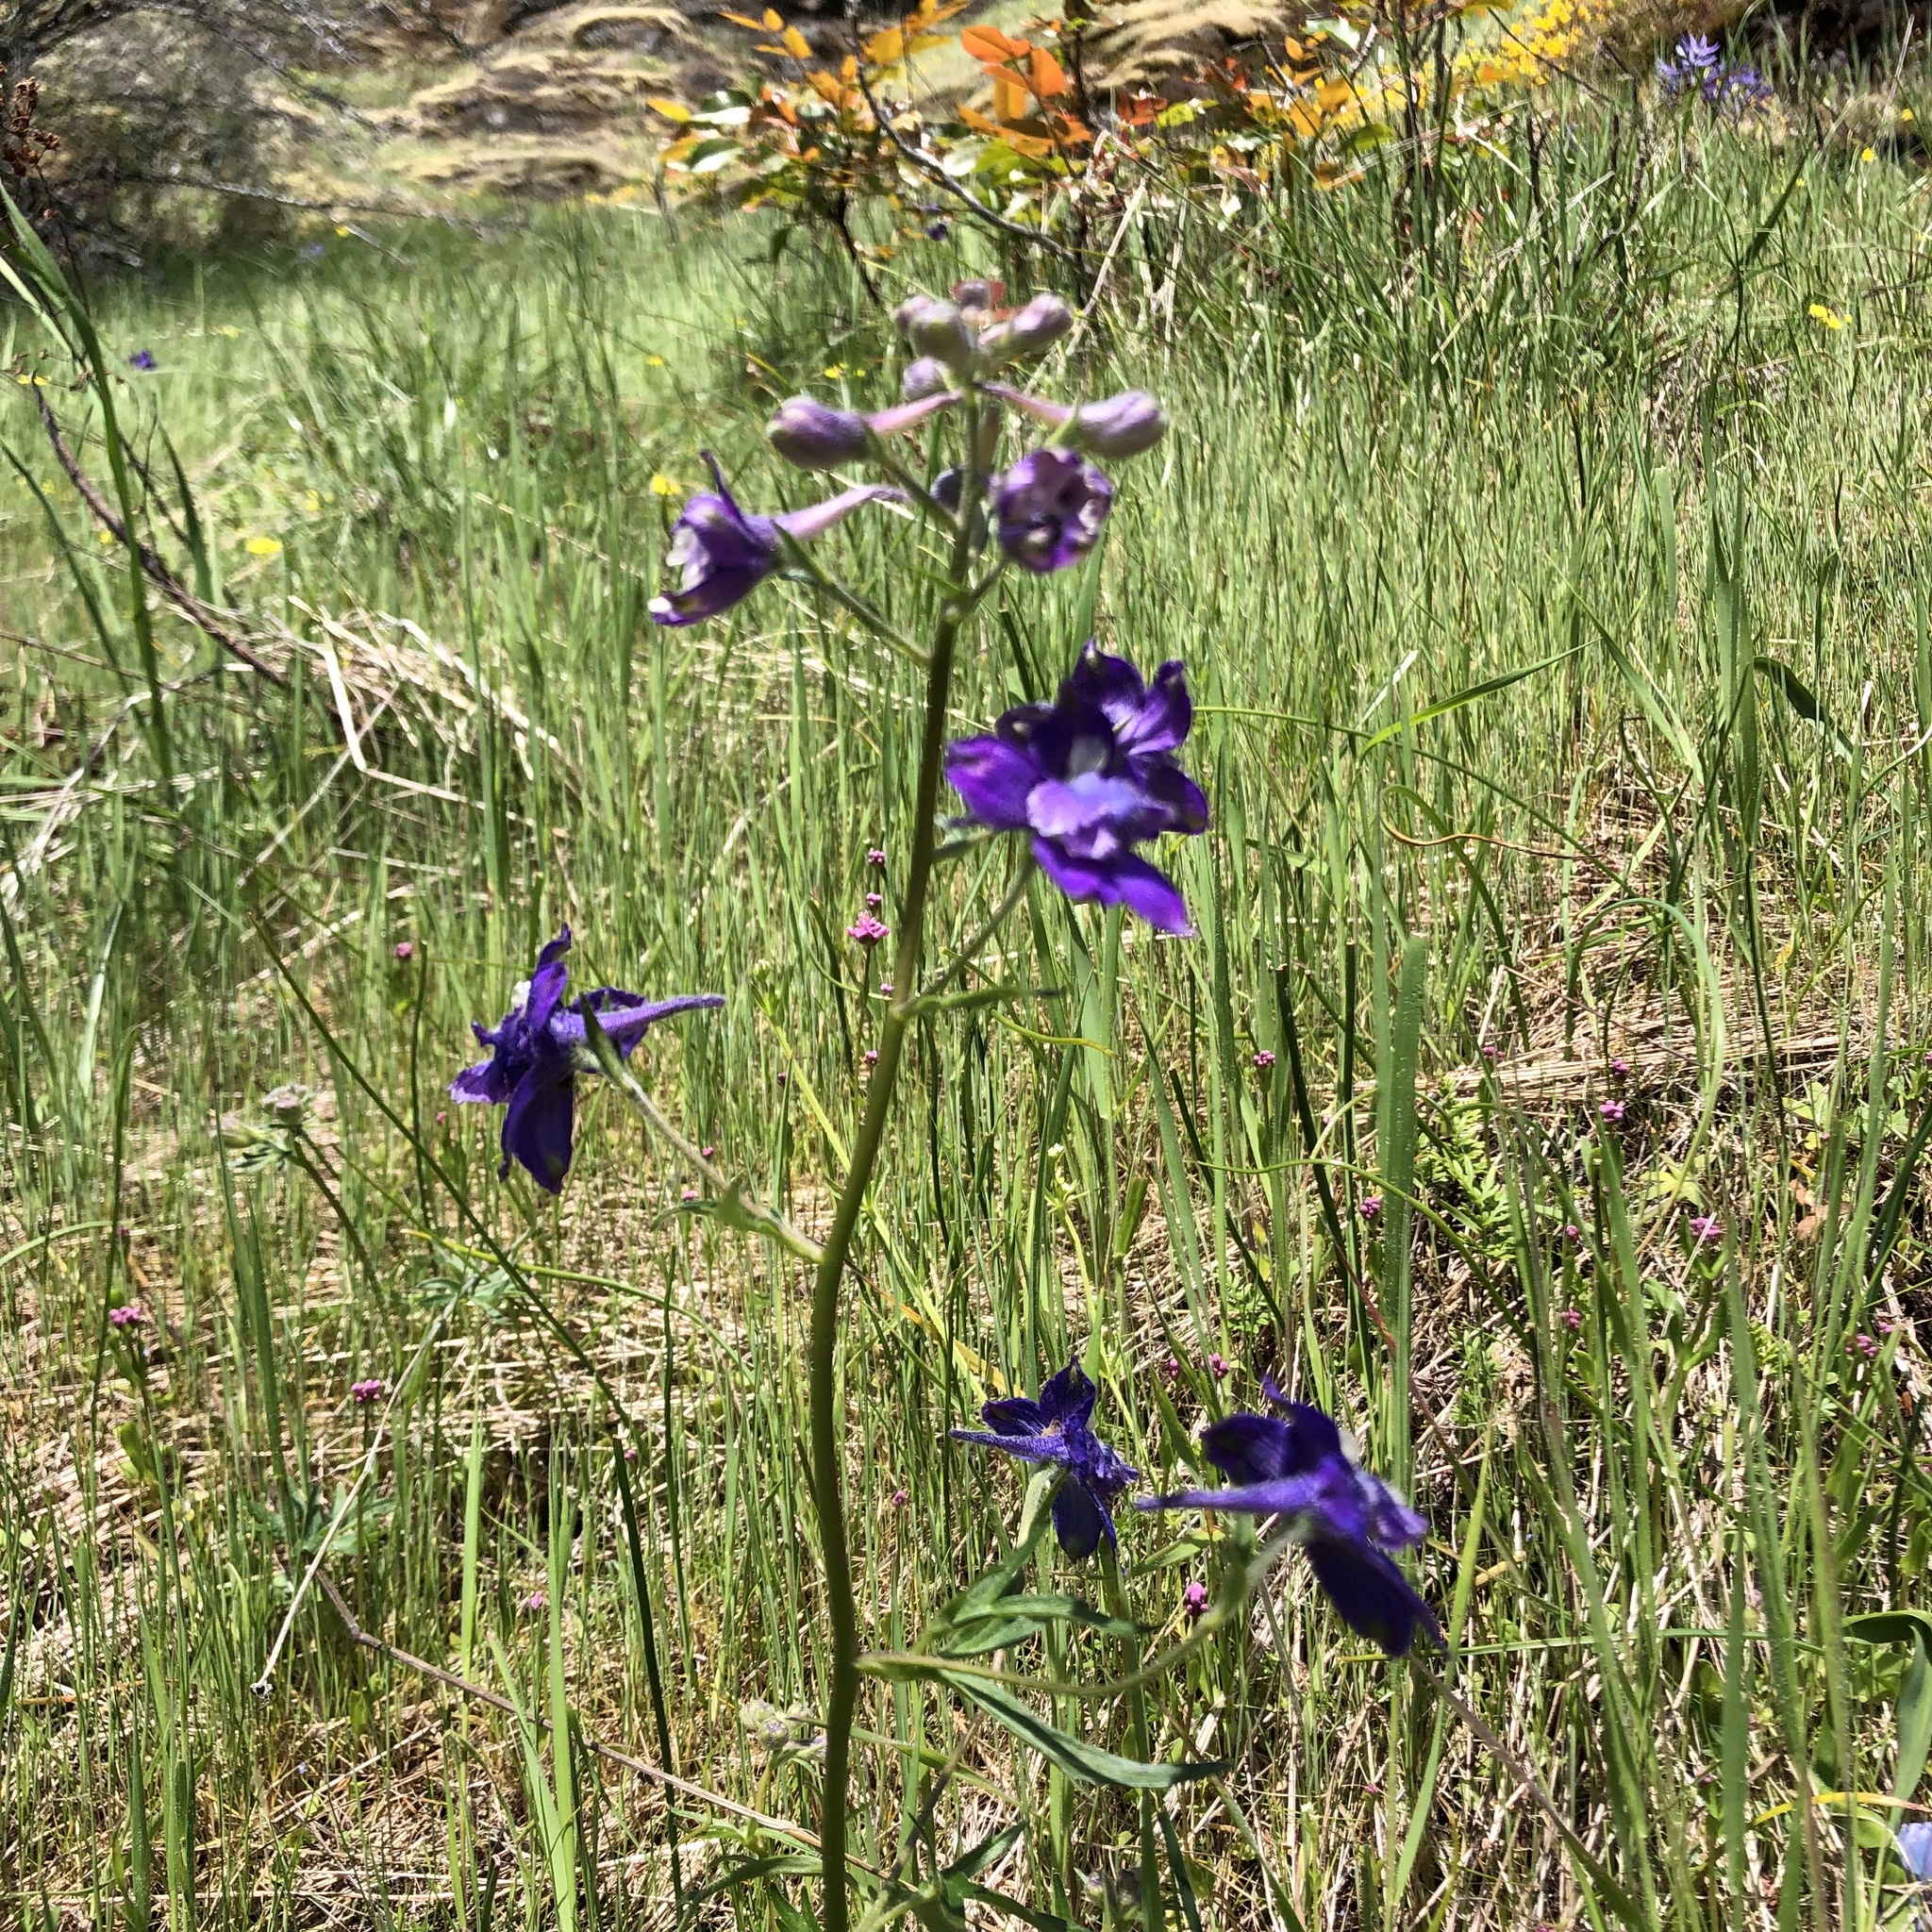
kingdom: Plantae
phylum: Tracheophyta
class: Magnoliopsida
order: Ranunculales
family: Ranunculaceae
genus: Delphinium
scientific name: Delphinium menziesii
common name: Menzies's larkspur
